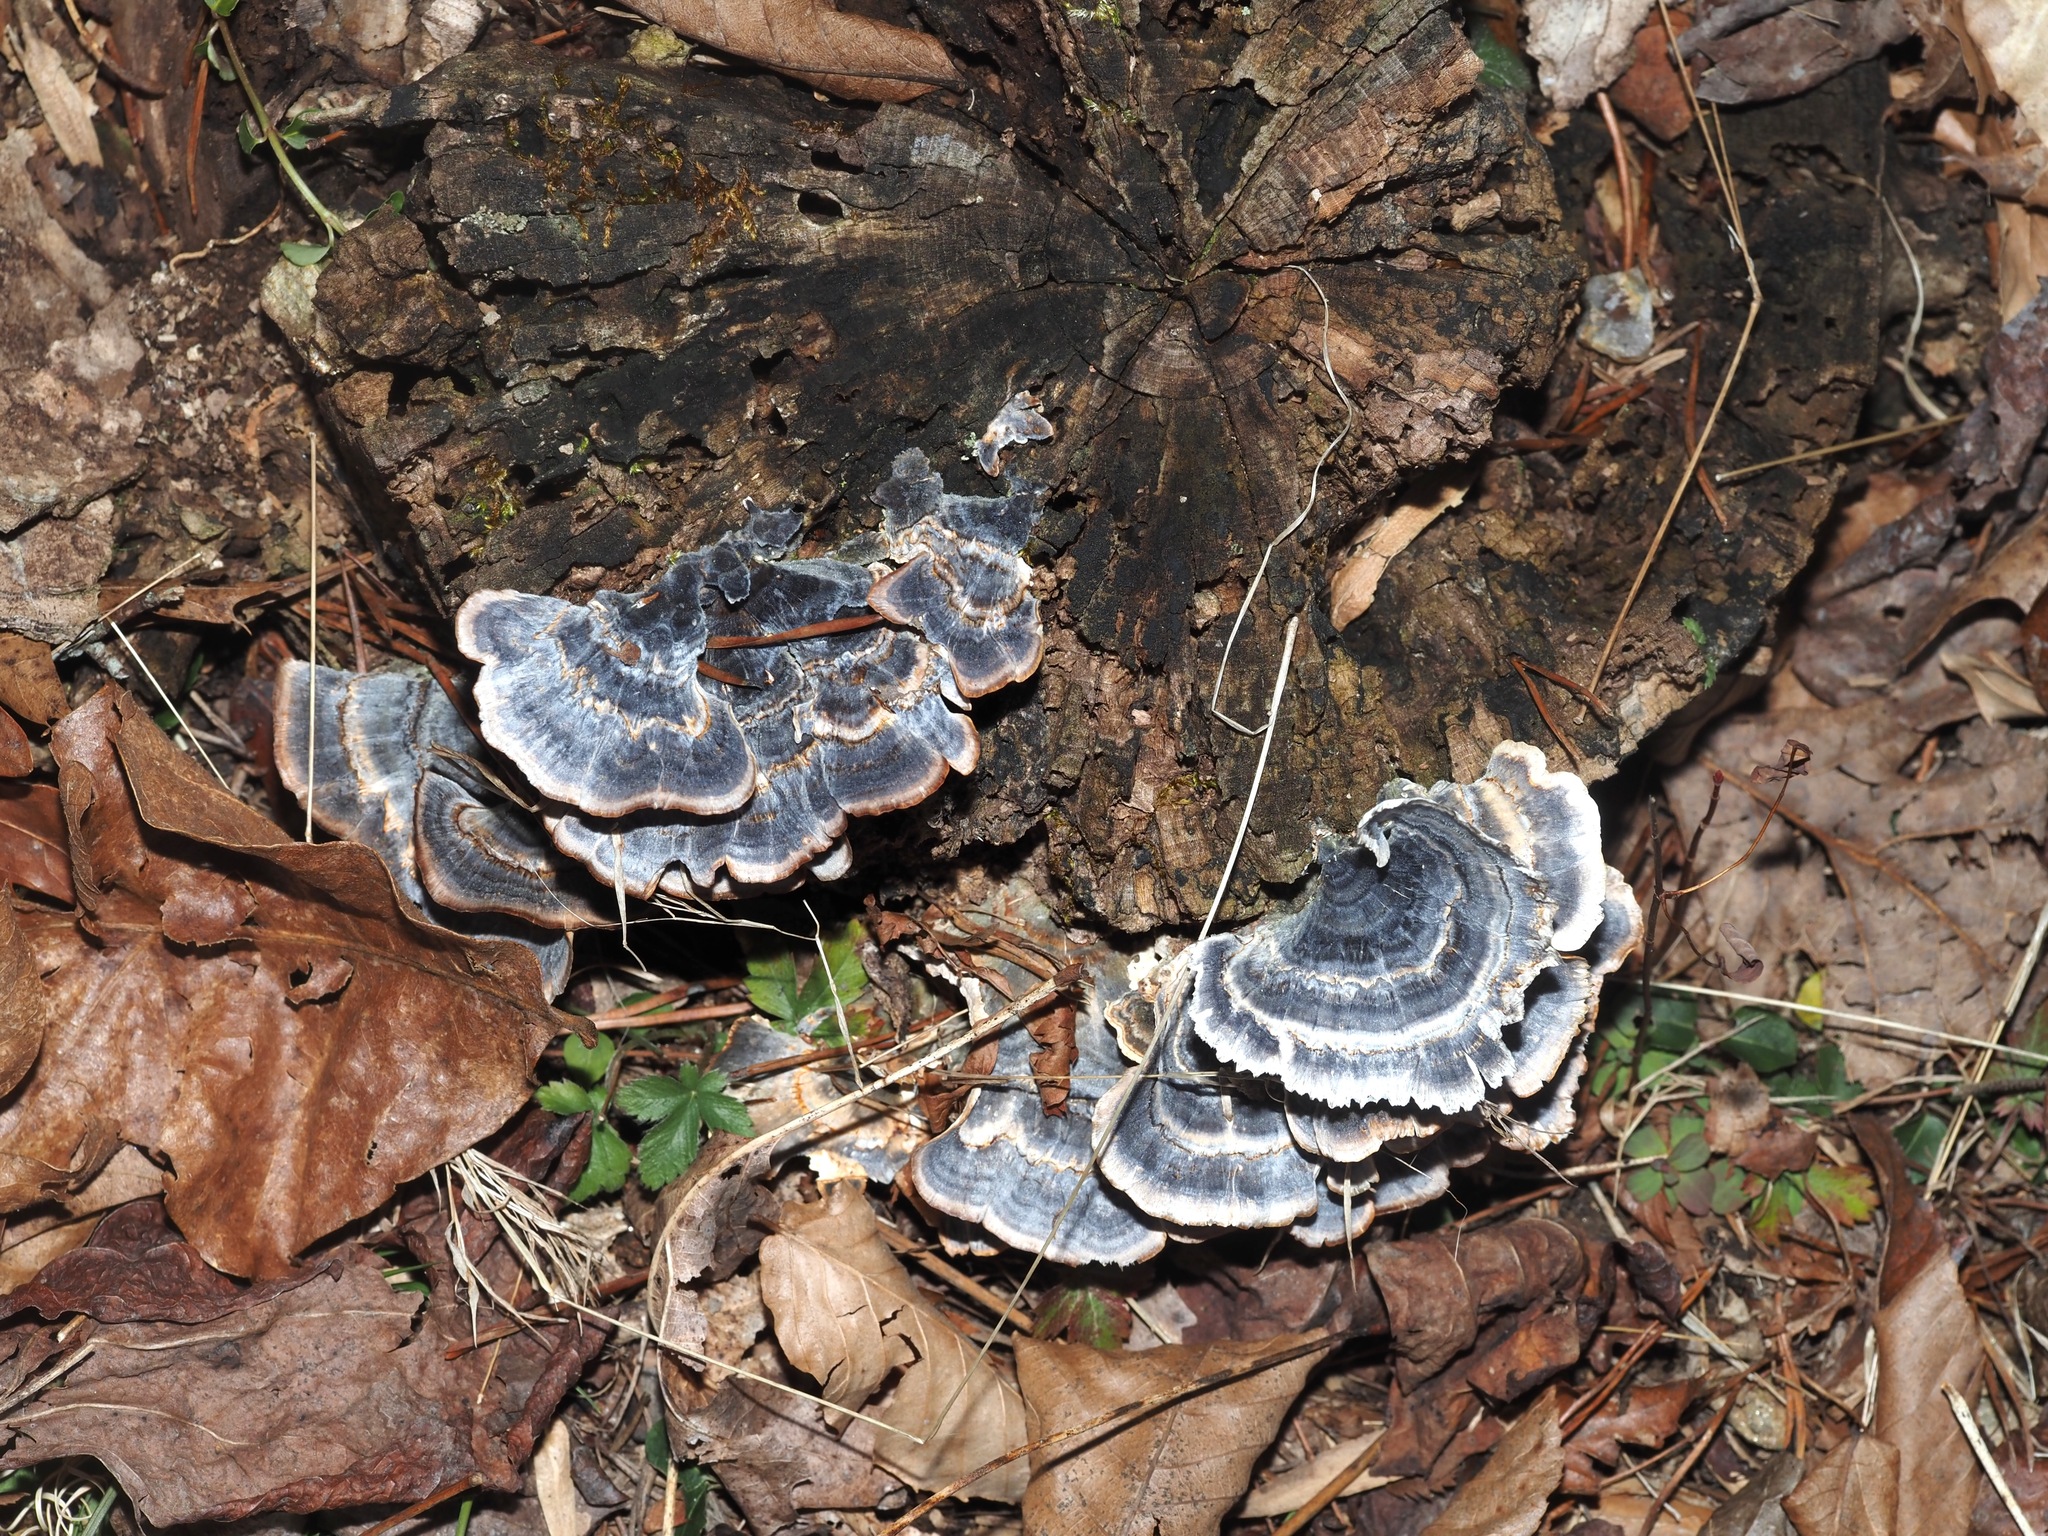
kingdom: Fungi
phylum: Basidiomycota
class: Agaricomycetes
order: Polyporales
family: Polyporaceae
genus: Trametes
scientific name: Trametes versicolor
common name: Turkeytail
